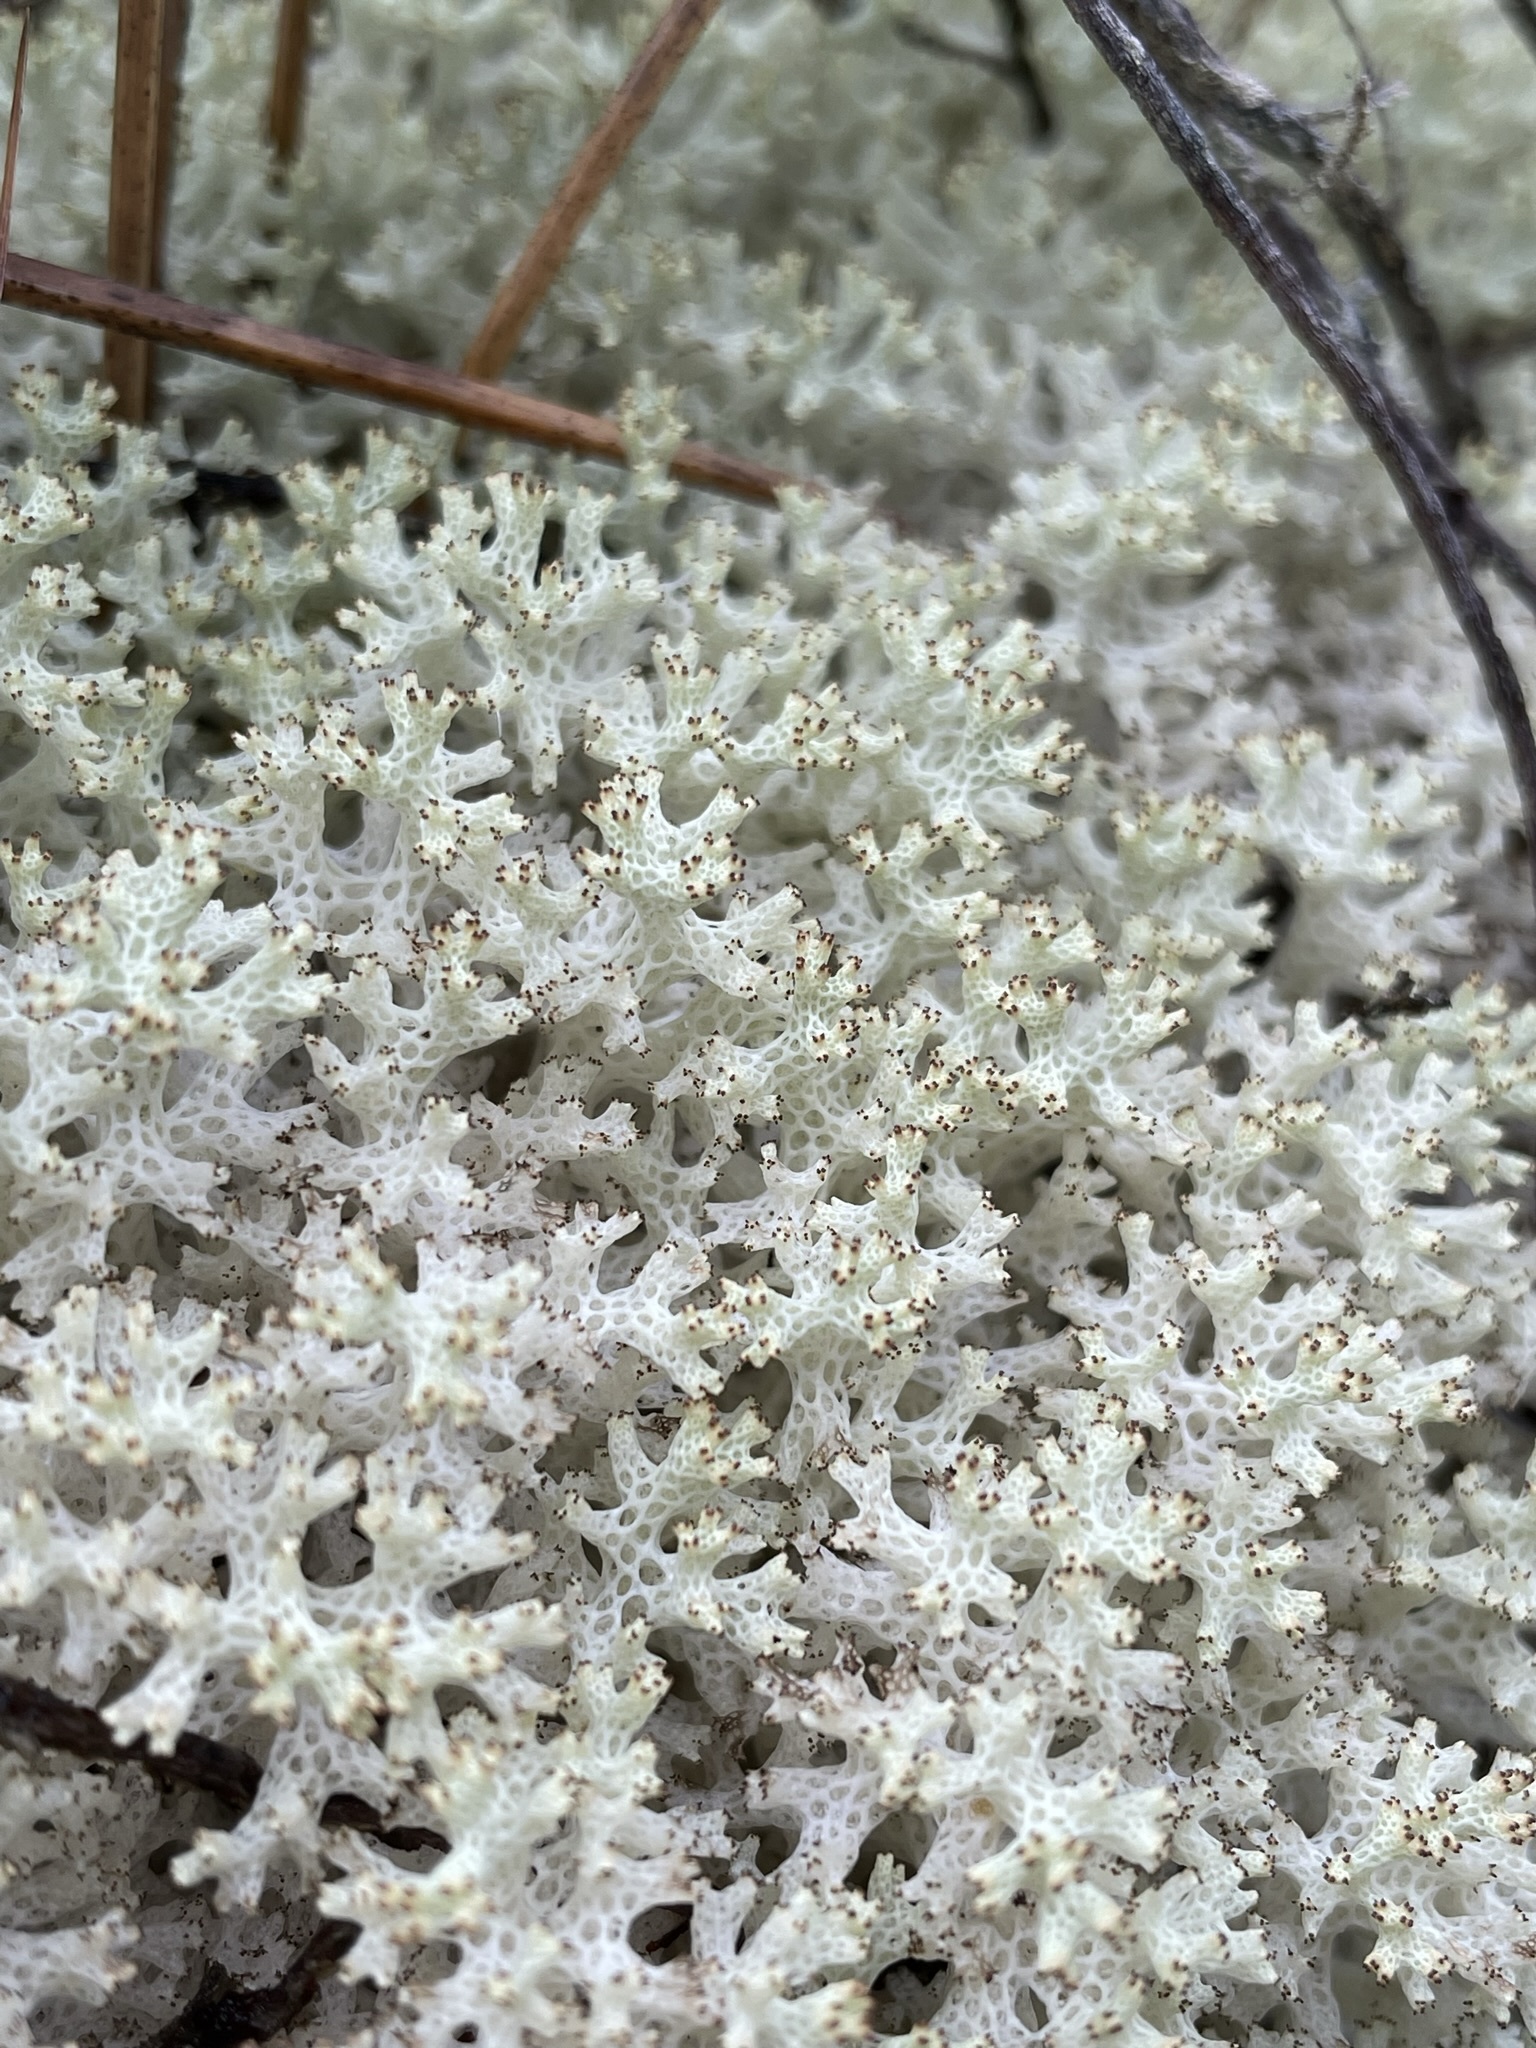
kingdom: Fungi
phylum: Ascomycota
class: Lecanoromycetes
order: Lecanorales
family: Cladoniaceae
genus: Pulchrocladia
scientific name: Pulchrocladia retipora
